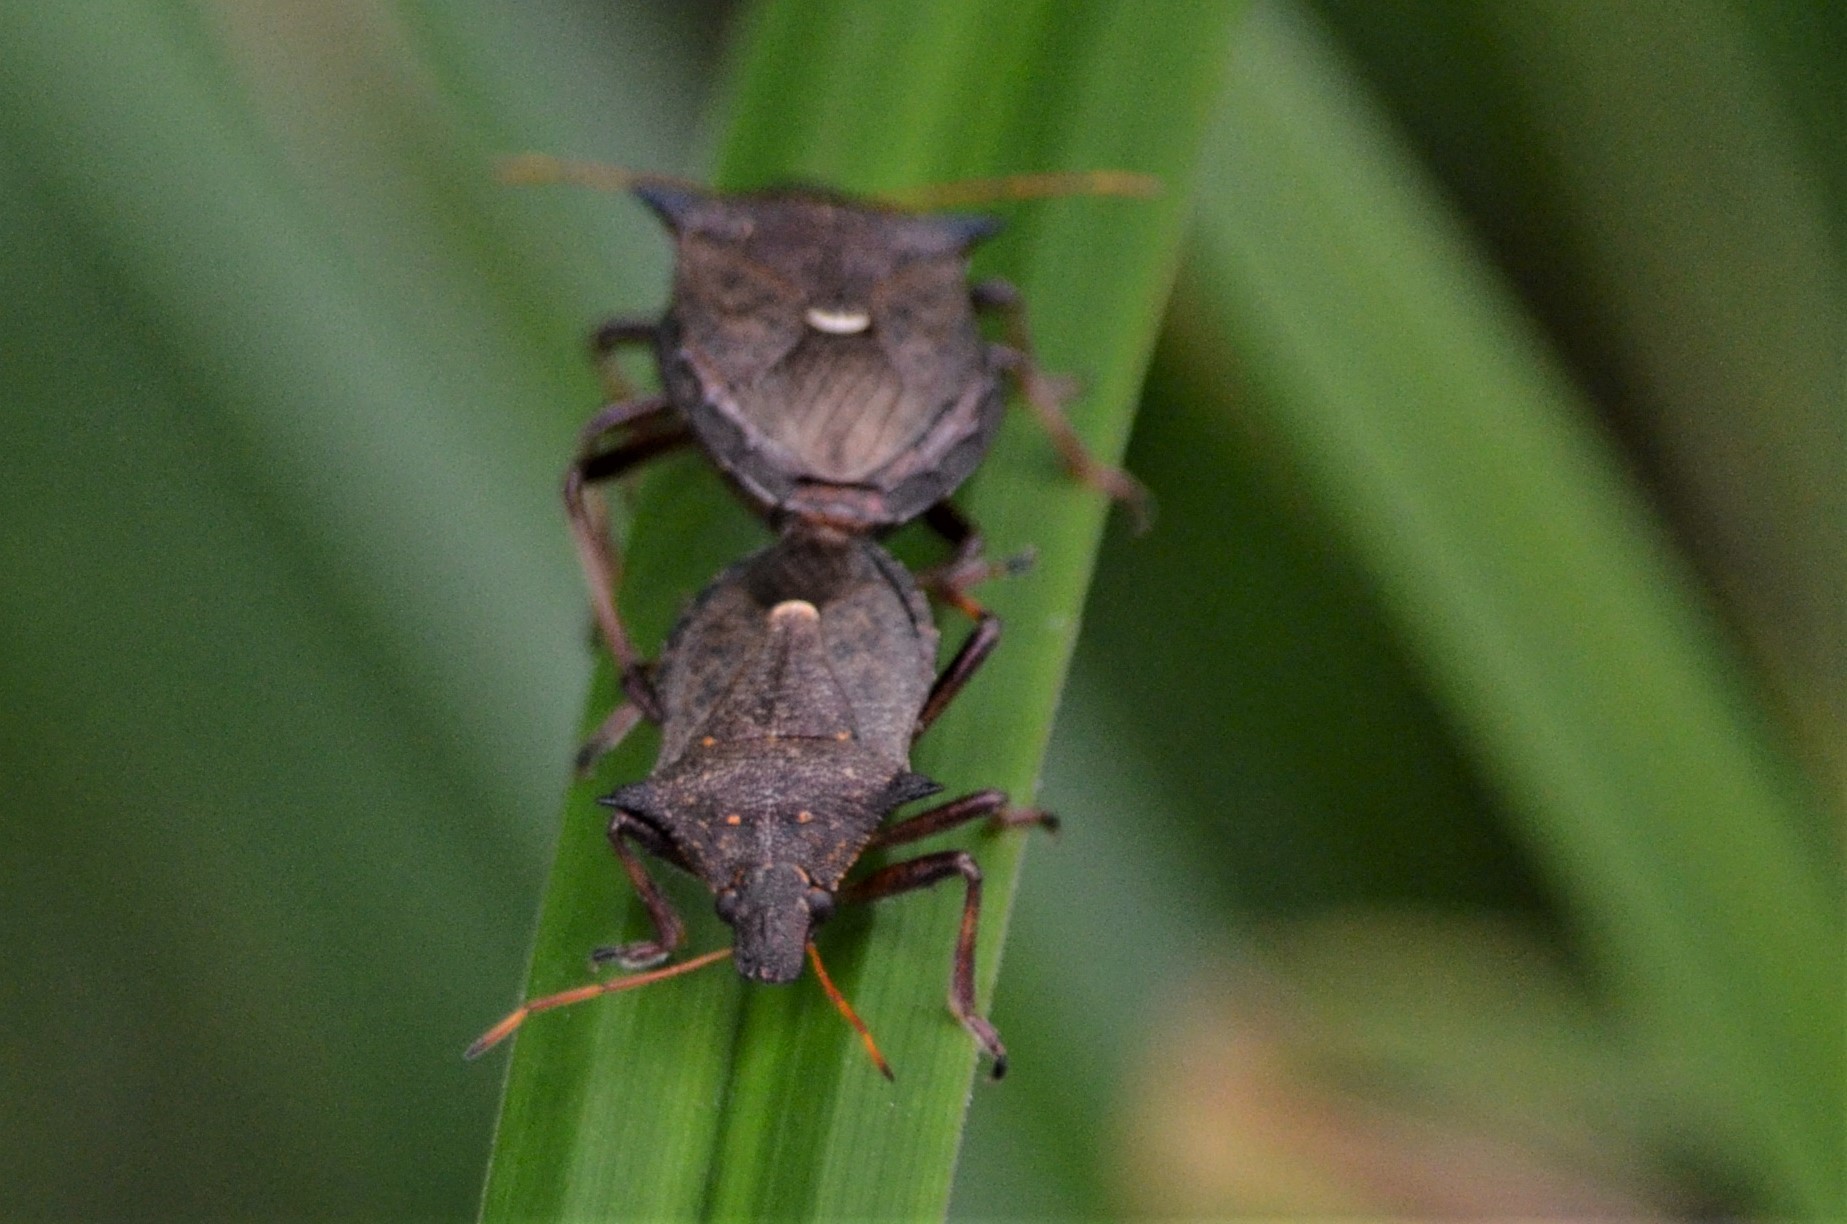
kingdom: Animalia
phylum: Arthropoda
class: Insecta
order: Hemiptera
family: Pentatomidae
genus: Picromerus
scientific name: Picromerus bidens
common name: Spiked shieldbug
